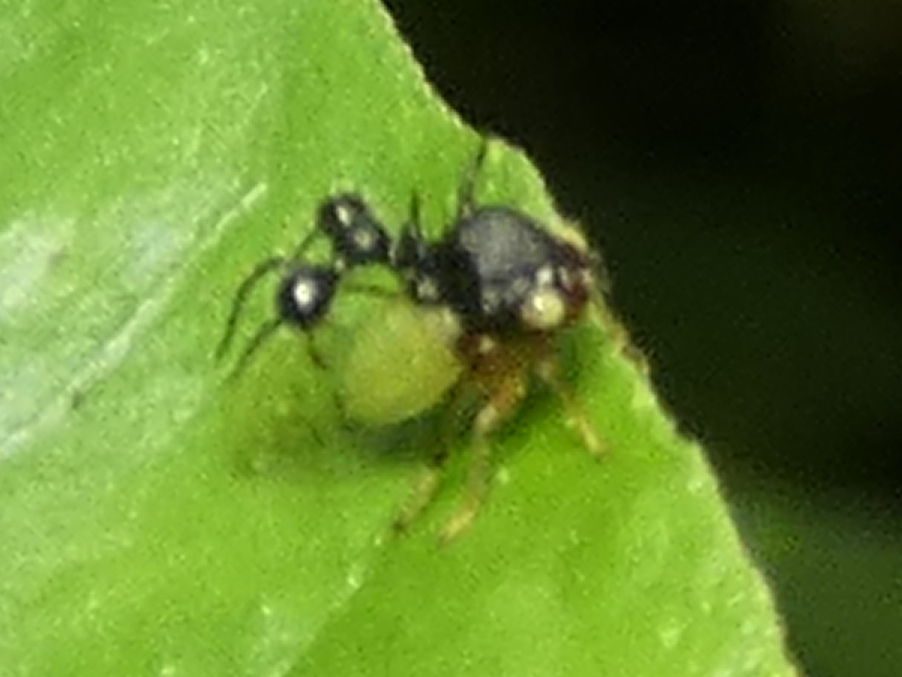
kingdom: Animalia
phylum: Arthropoda
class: Insecta
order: Hemiptera
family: Membracidae
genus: Cyphonia
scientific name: Cyphonia clavata
